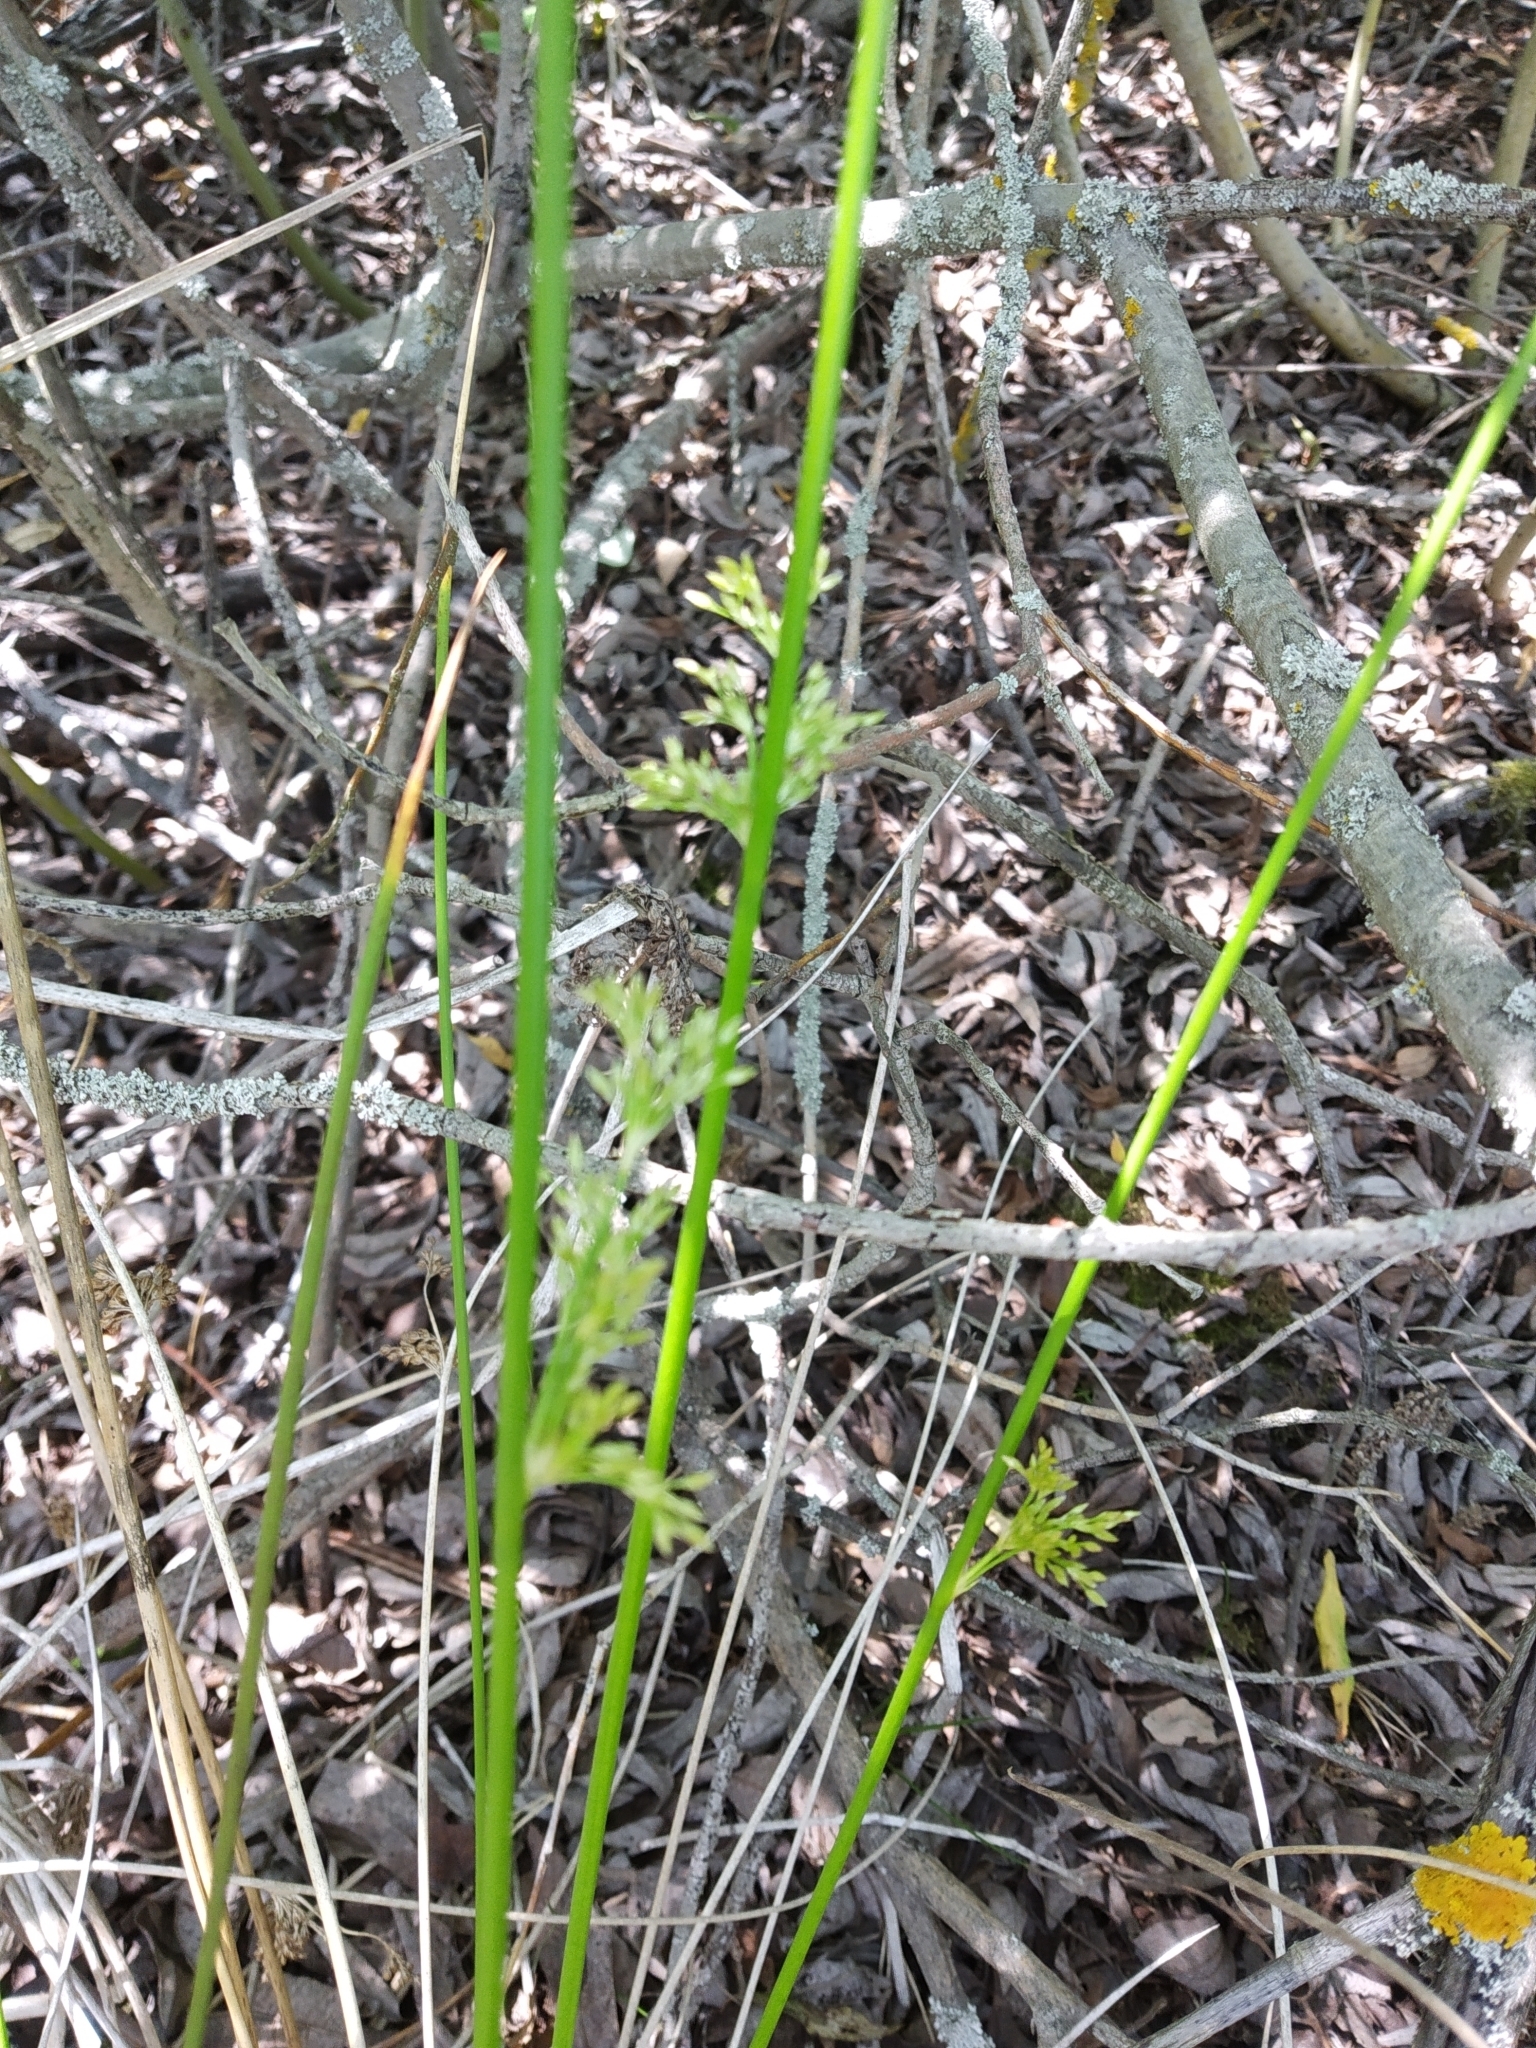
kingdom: Plantae
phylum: Tracheophyta
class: Liliopsida
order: Poales
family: Juncaceae
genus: Juncus
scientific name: Juncus effusus
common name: Soft rush
